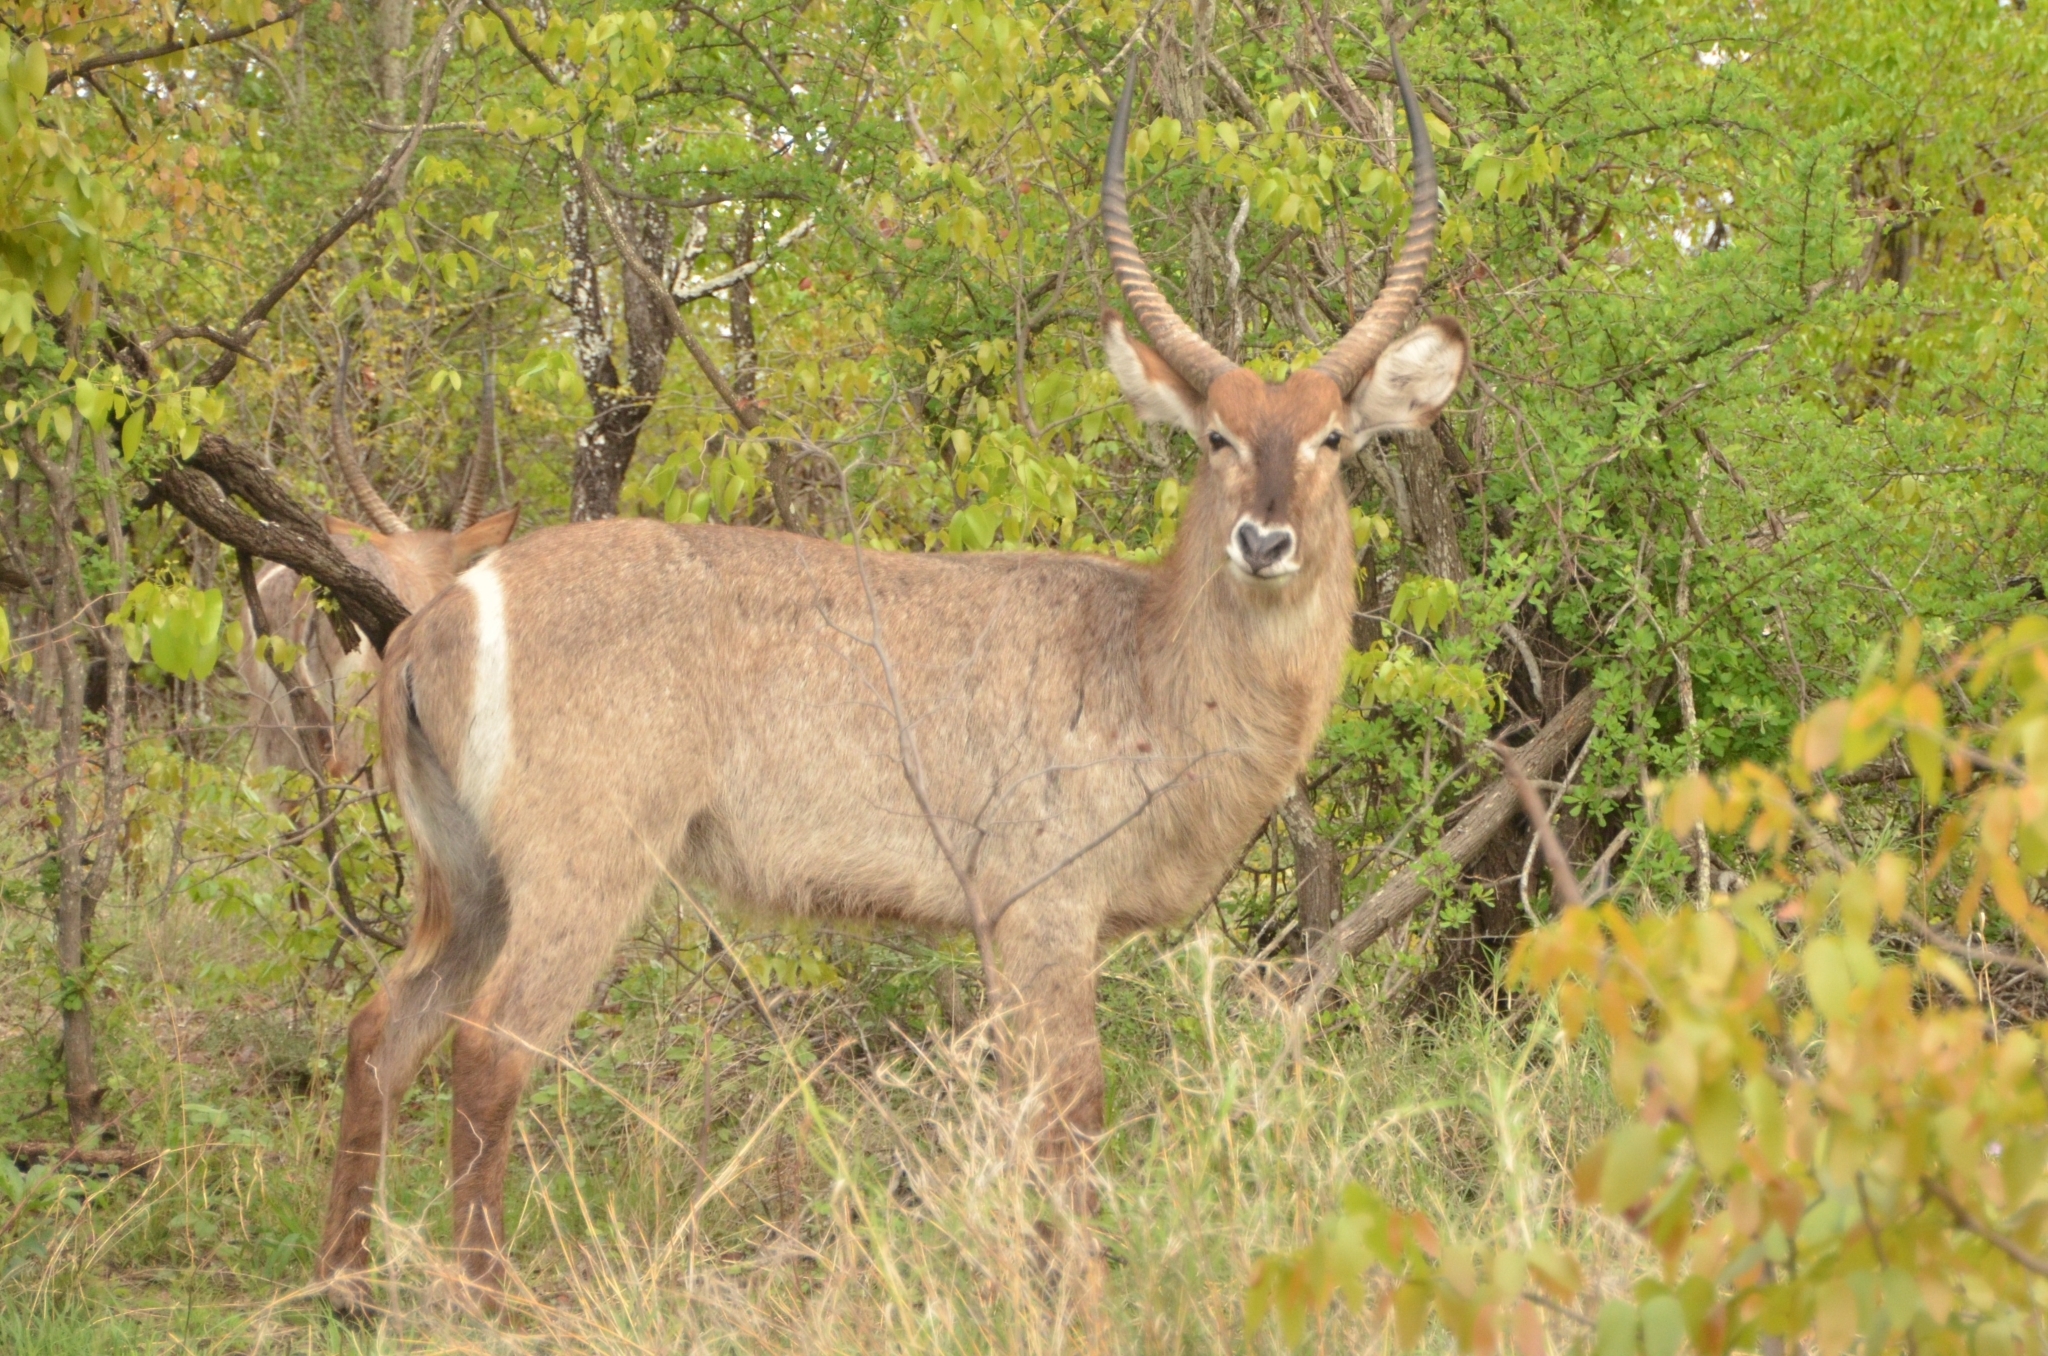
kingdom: Animalia
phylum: Chordata
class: Mammalia
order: Artiodactyla
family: Bovidae
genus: Kobus
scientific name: Kobus ellipsiprymnus
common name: Waterbuck
